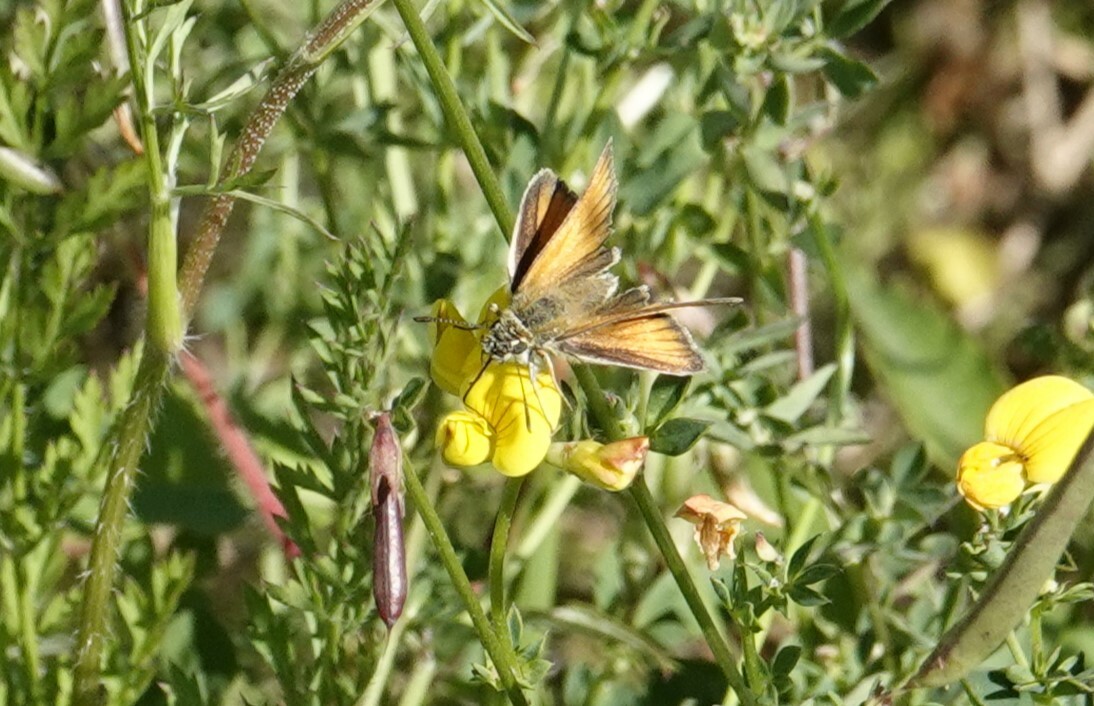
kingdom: Animalia
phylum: Arthropoda
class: Insecta
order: Lepidoptera
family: Hesperiidae
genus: Thymelicus
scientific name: Thymelicus lineola
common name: Essex skipper
